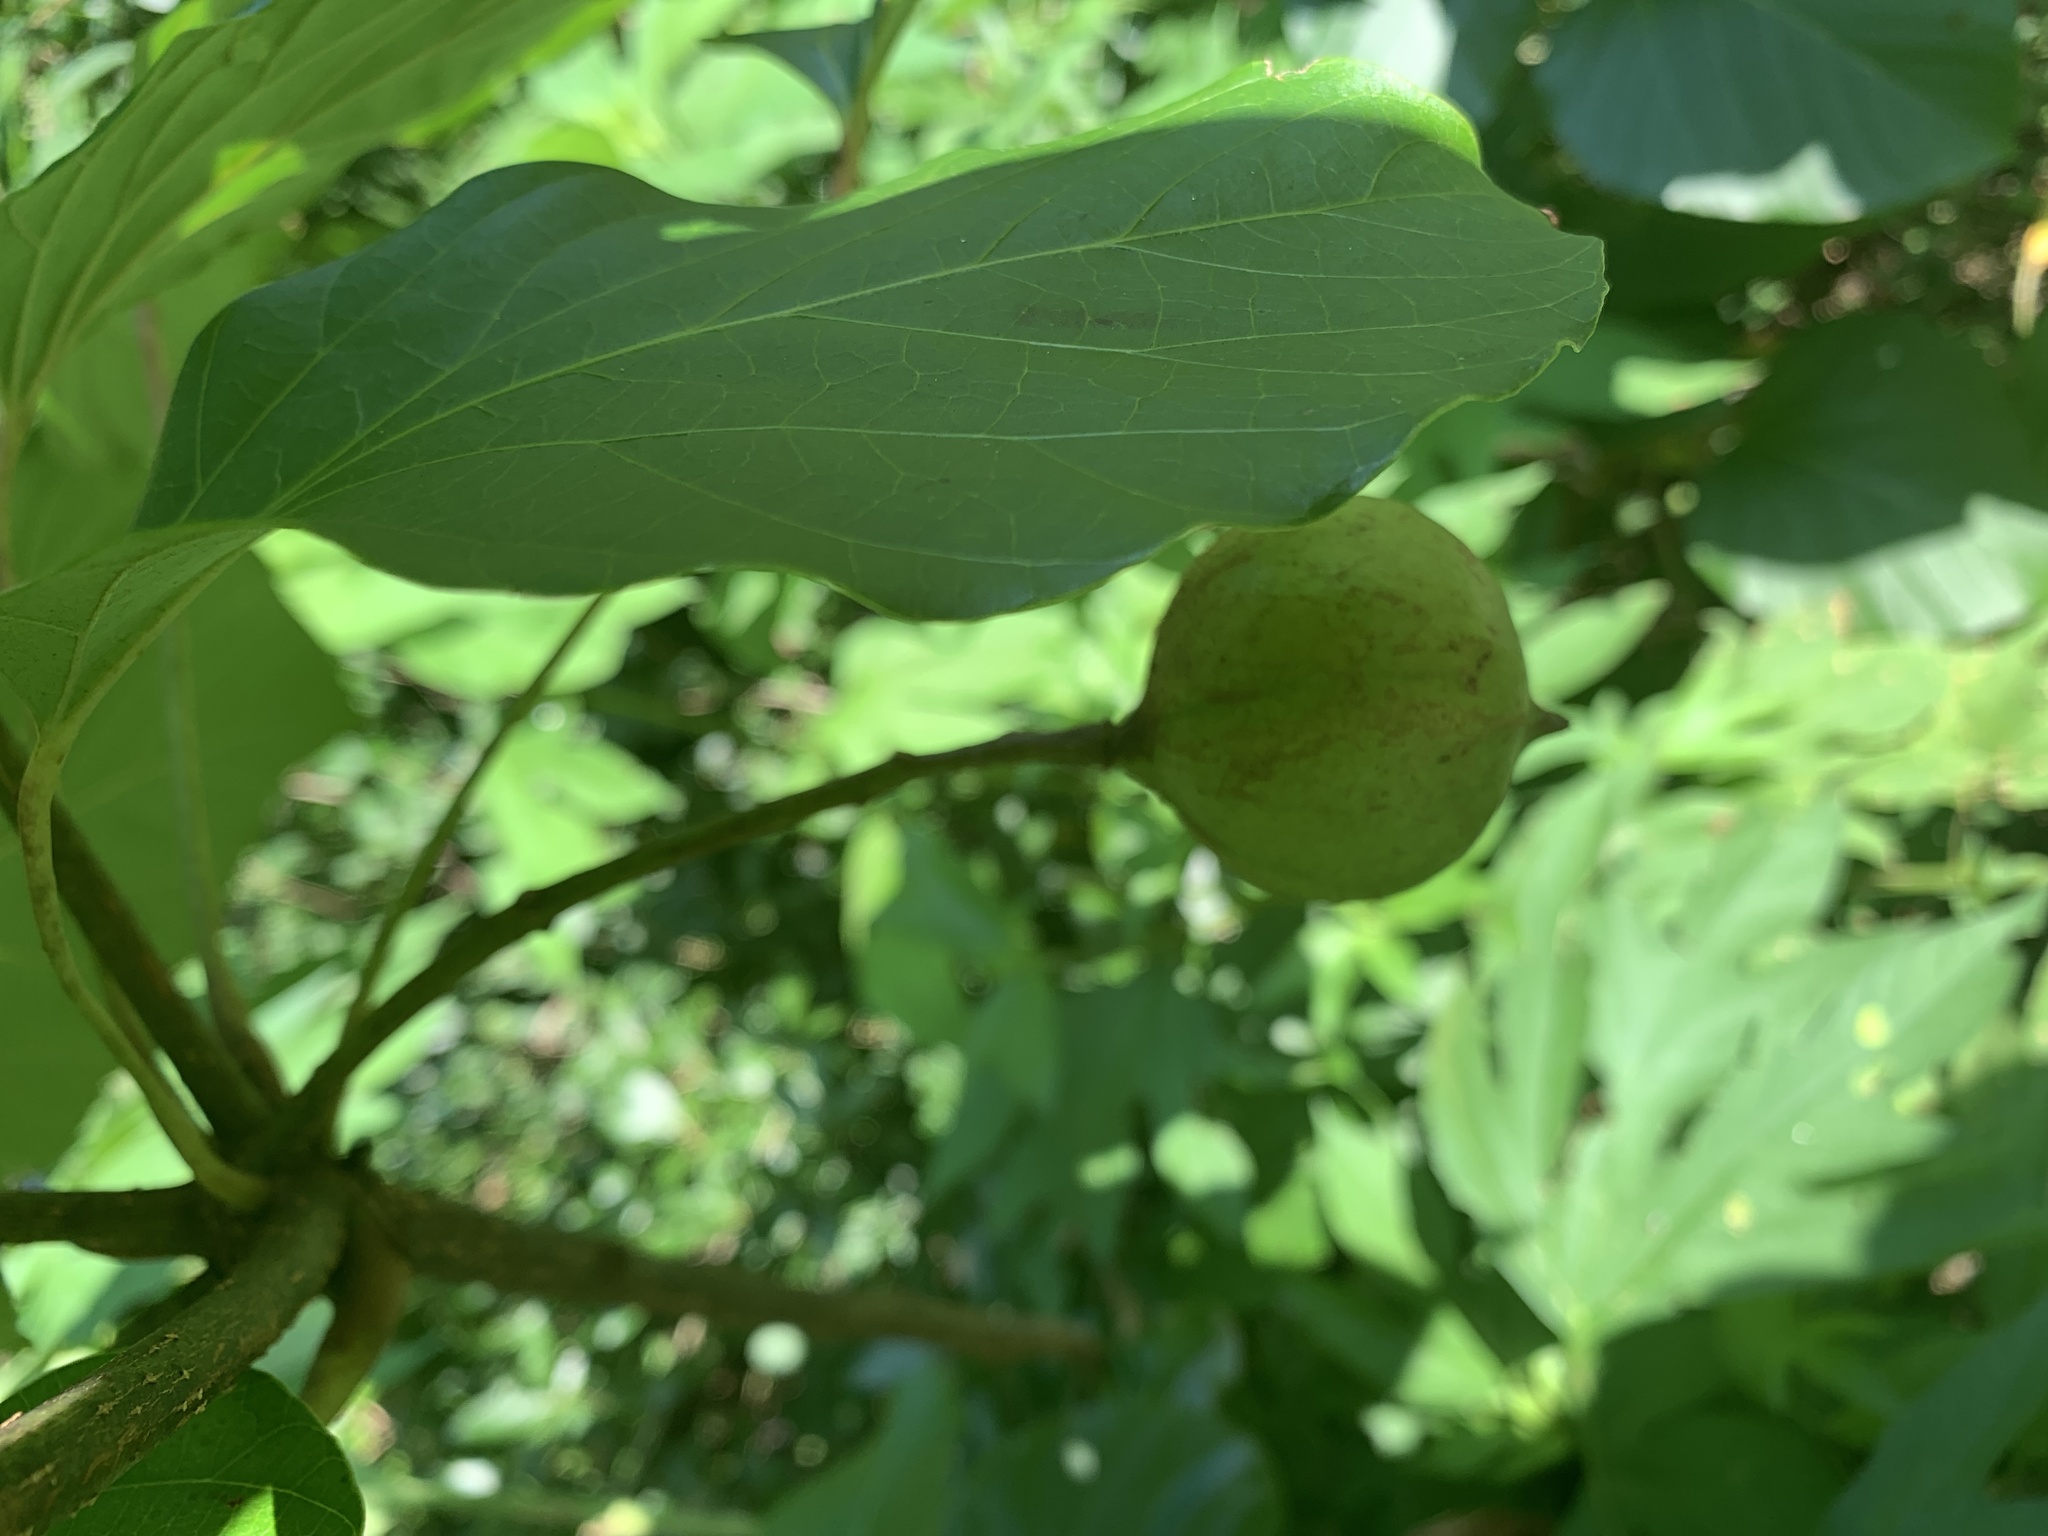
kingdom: Plantae
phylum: Tracheophyta
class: Magnoliopsida
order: Malpighiales
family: Euphorbiaceae
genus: Vernicia
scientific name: Vernicia fordii
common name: Tungoil tree
